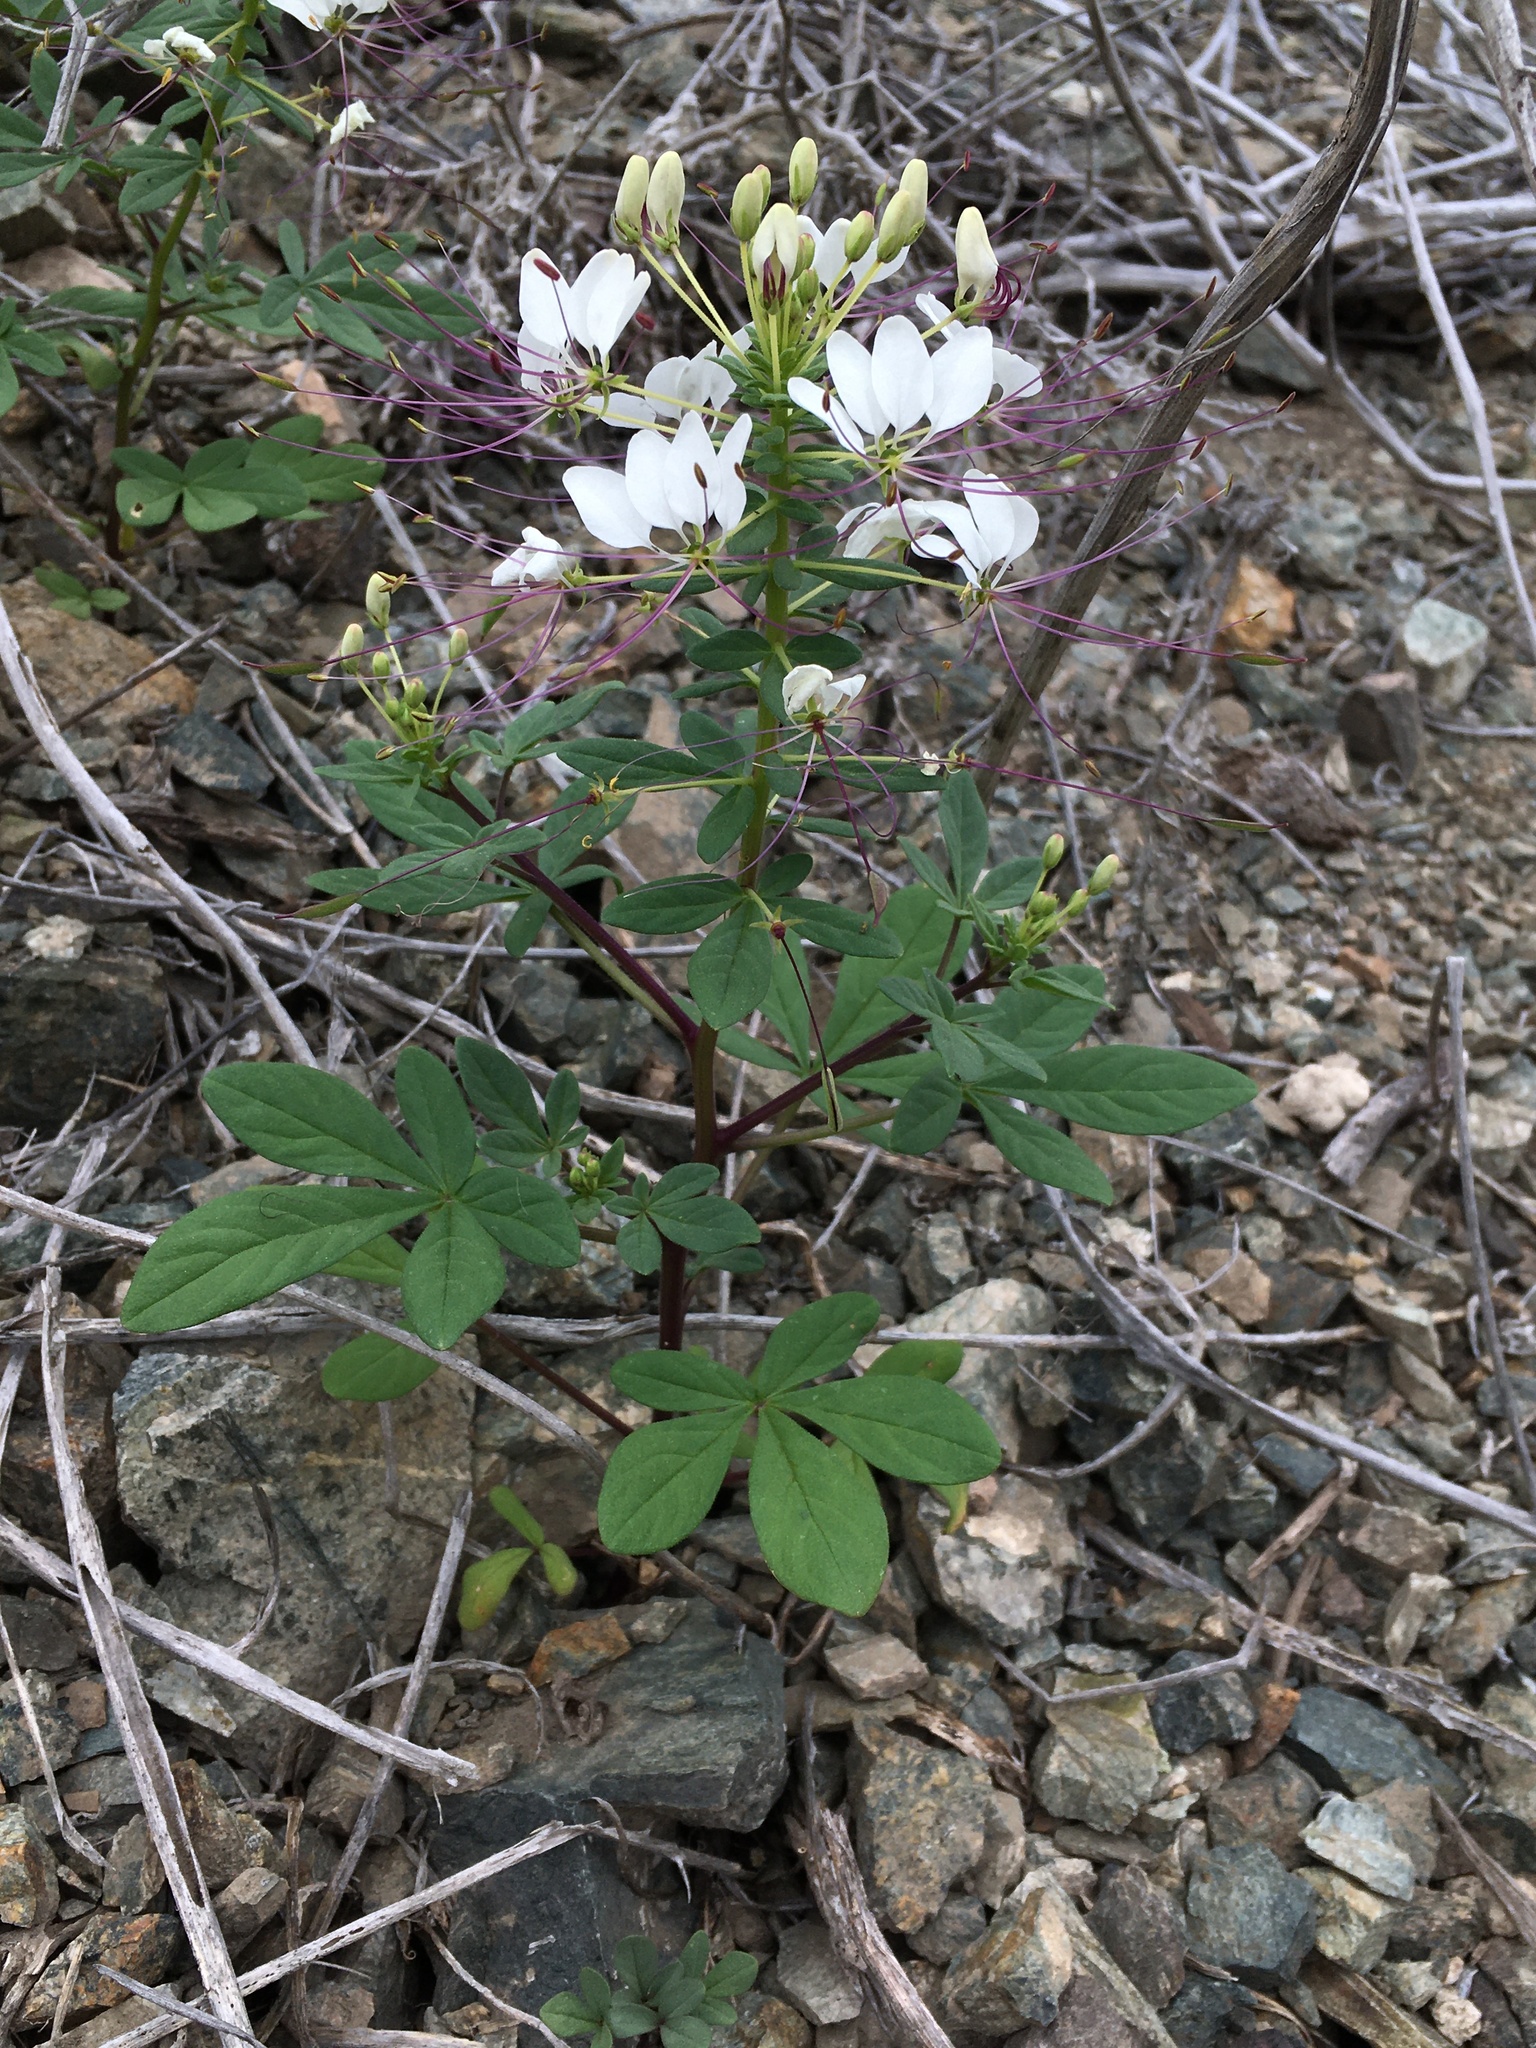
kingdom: Plantae
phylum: Tracheophyta
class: Magnoliopsida
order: Brassicales
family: Cleomaceae
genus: Andinocleome
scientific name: Andinocleome chilensis
